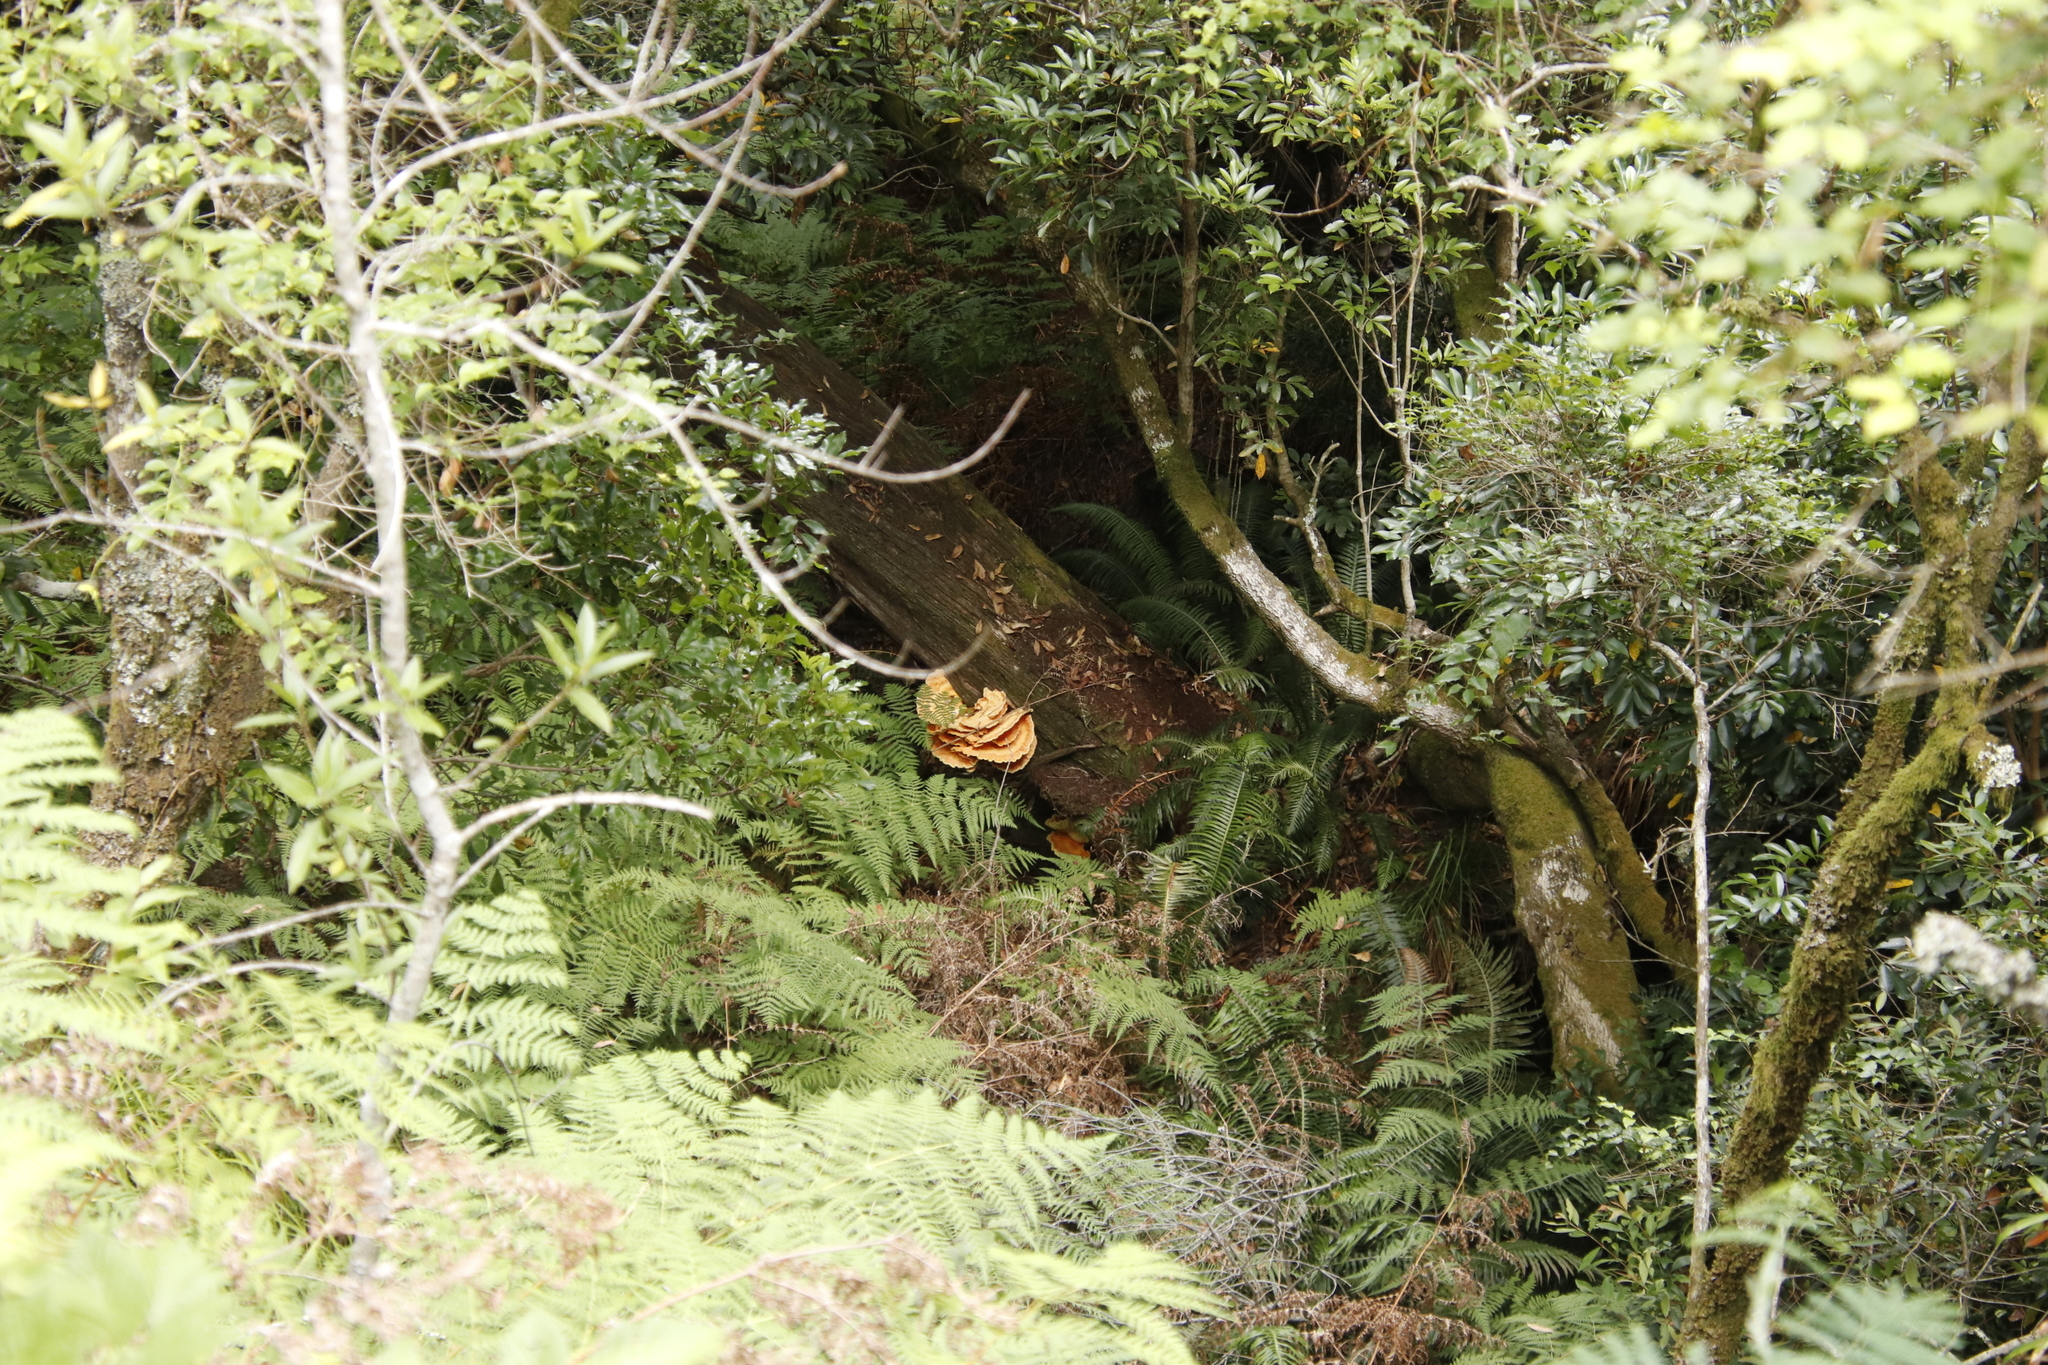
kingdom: Fungi
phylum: Basidiomycota
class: Agaricomycetes
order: Polyporales
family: Laetiporaceae
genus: Laetiporus
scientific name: Laetiporus sulphureus
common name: Chicken of the woods
